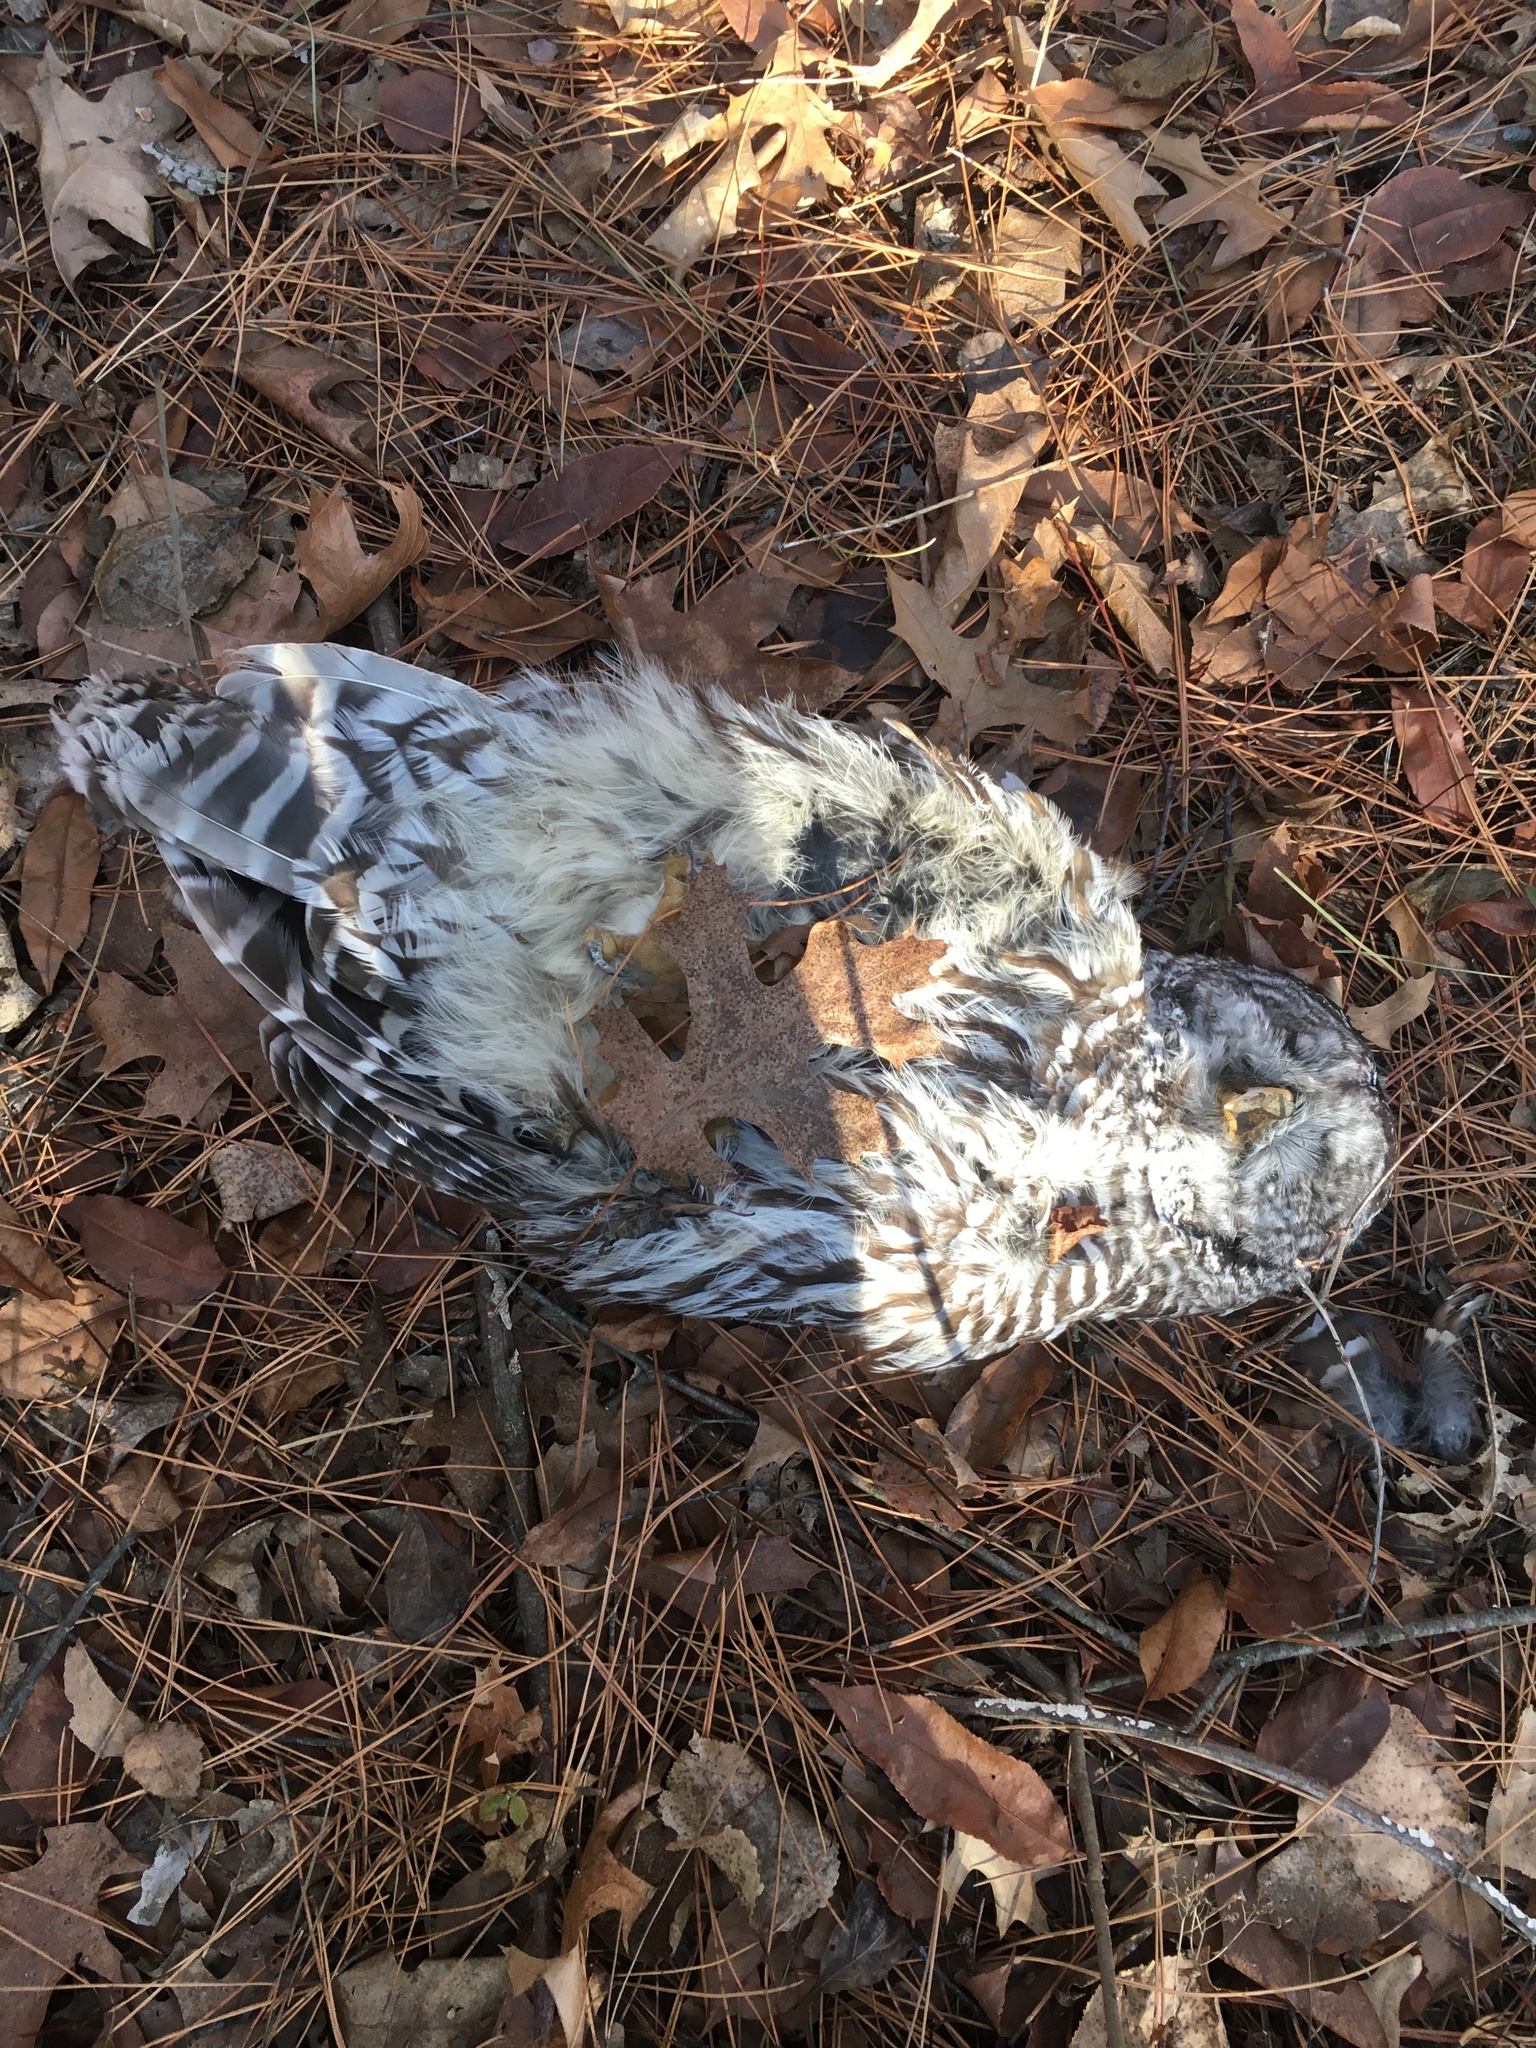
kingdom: Animalia
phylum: Chordata
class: Aves
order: Strigiformes
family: Strigidae
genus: Strix
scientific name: Strix varia
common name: Barred owl
